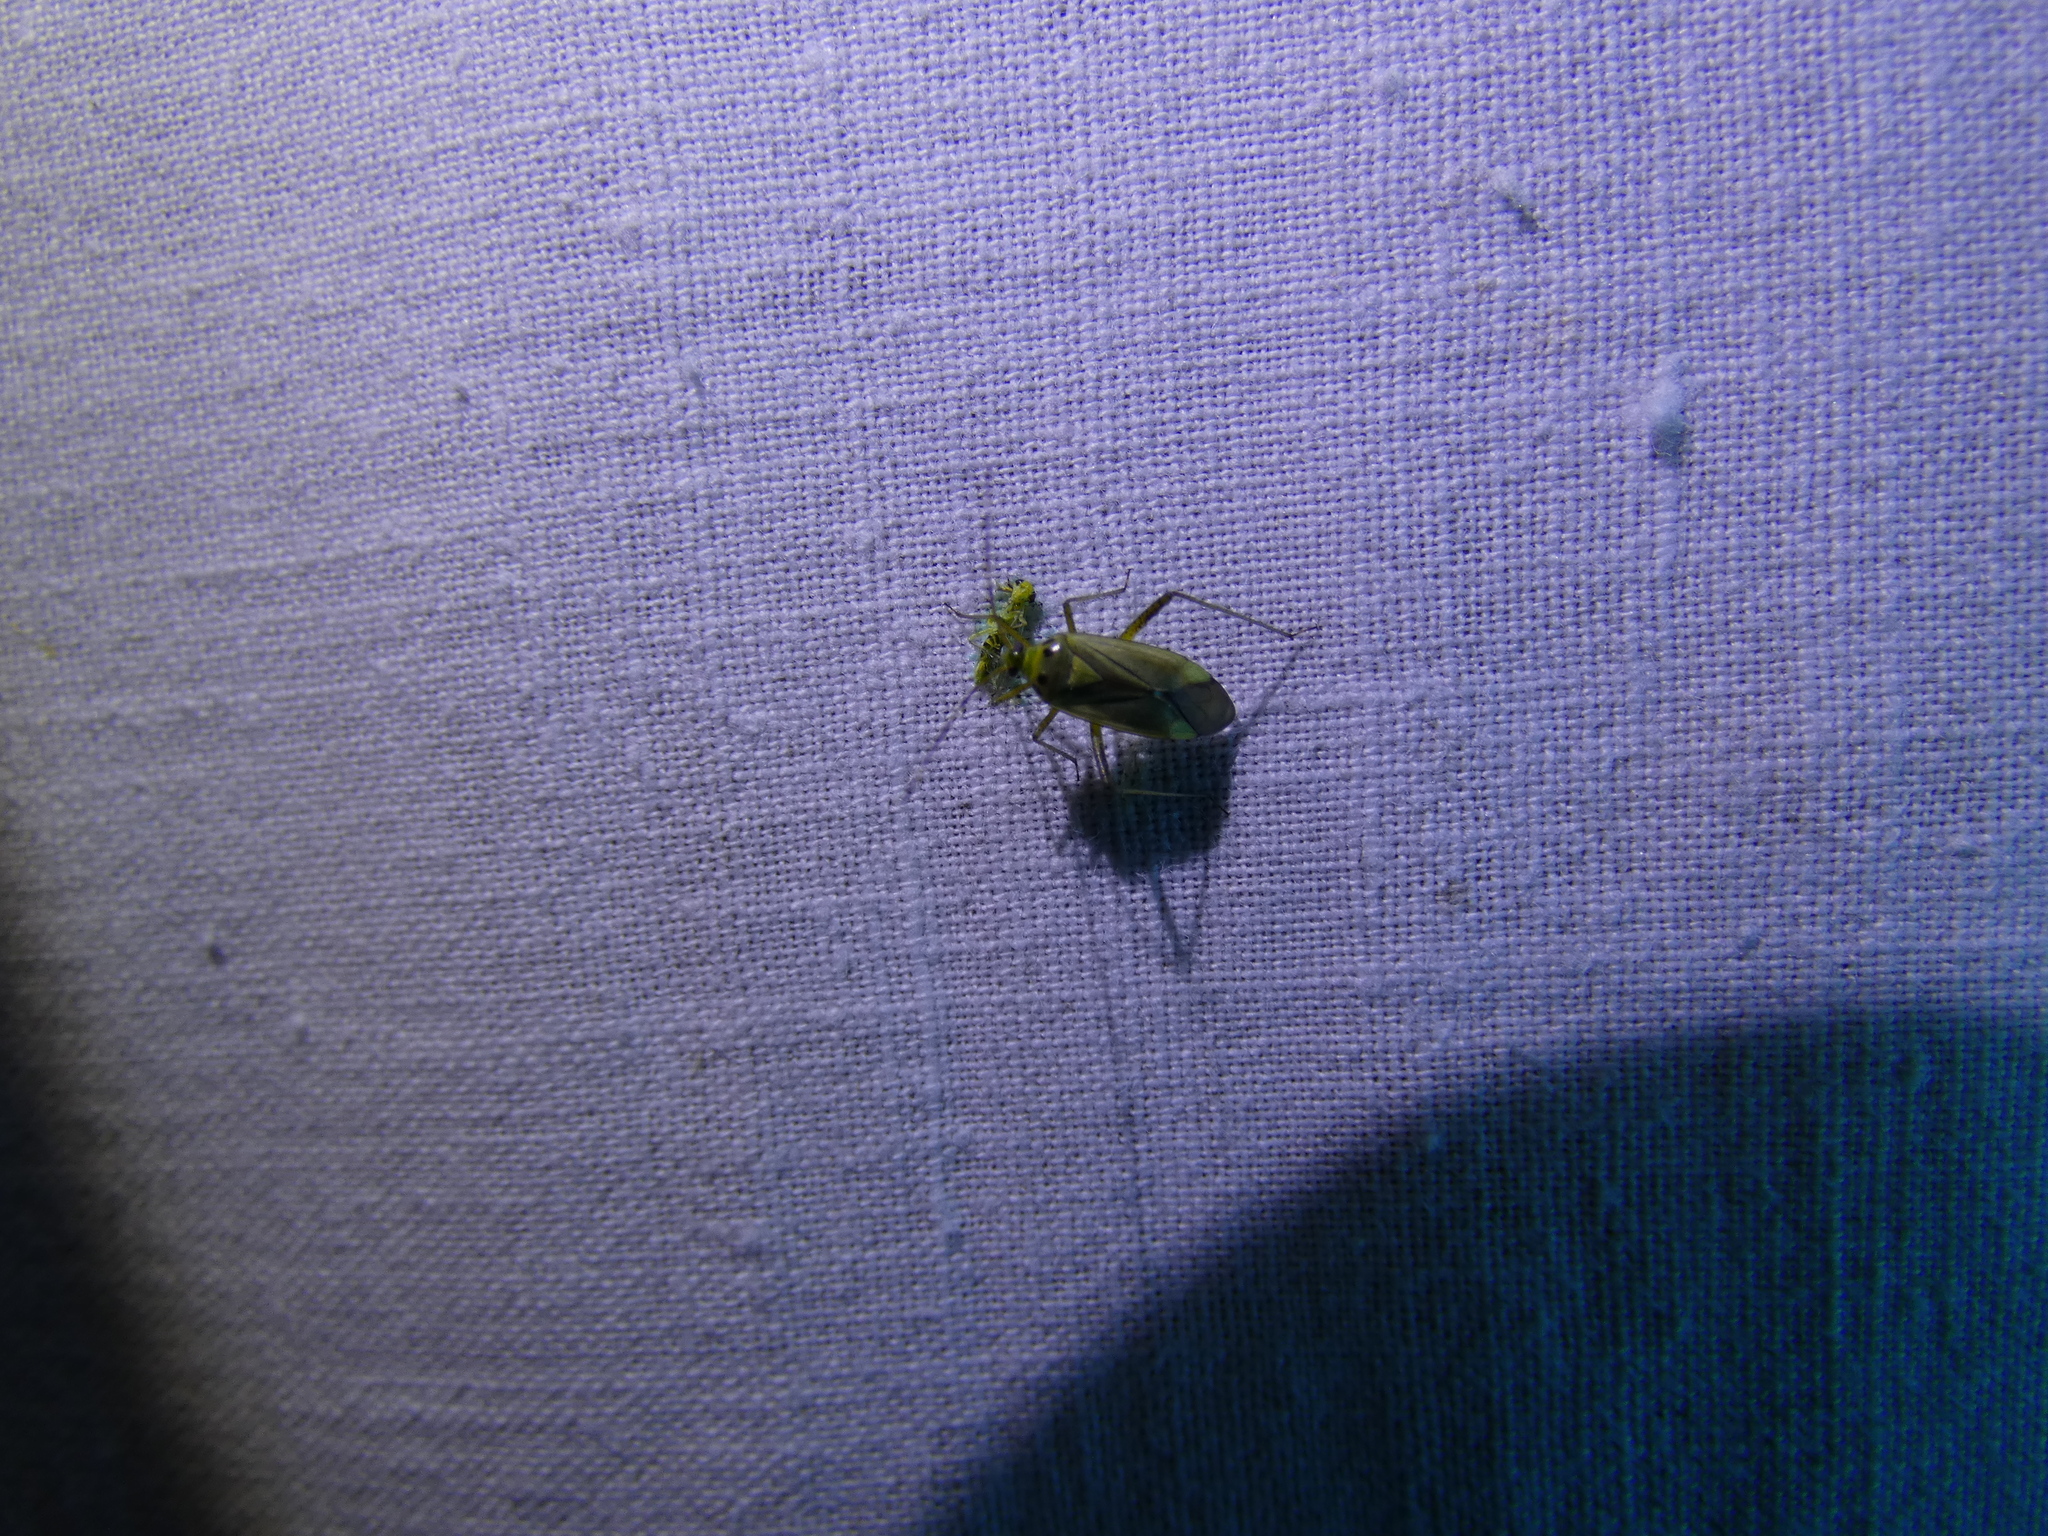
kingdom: Animalia
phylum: Arthropoda
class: Insecta
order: Hemiptera
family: Miridae
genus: Adelphocoris
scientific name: Adelphocoris quadripunctatus
